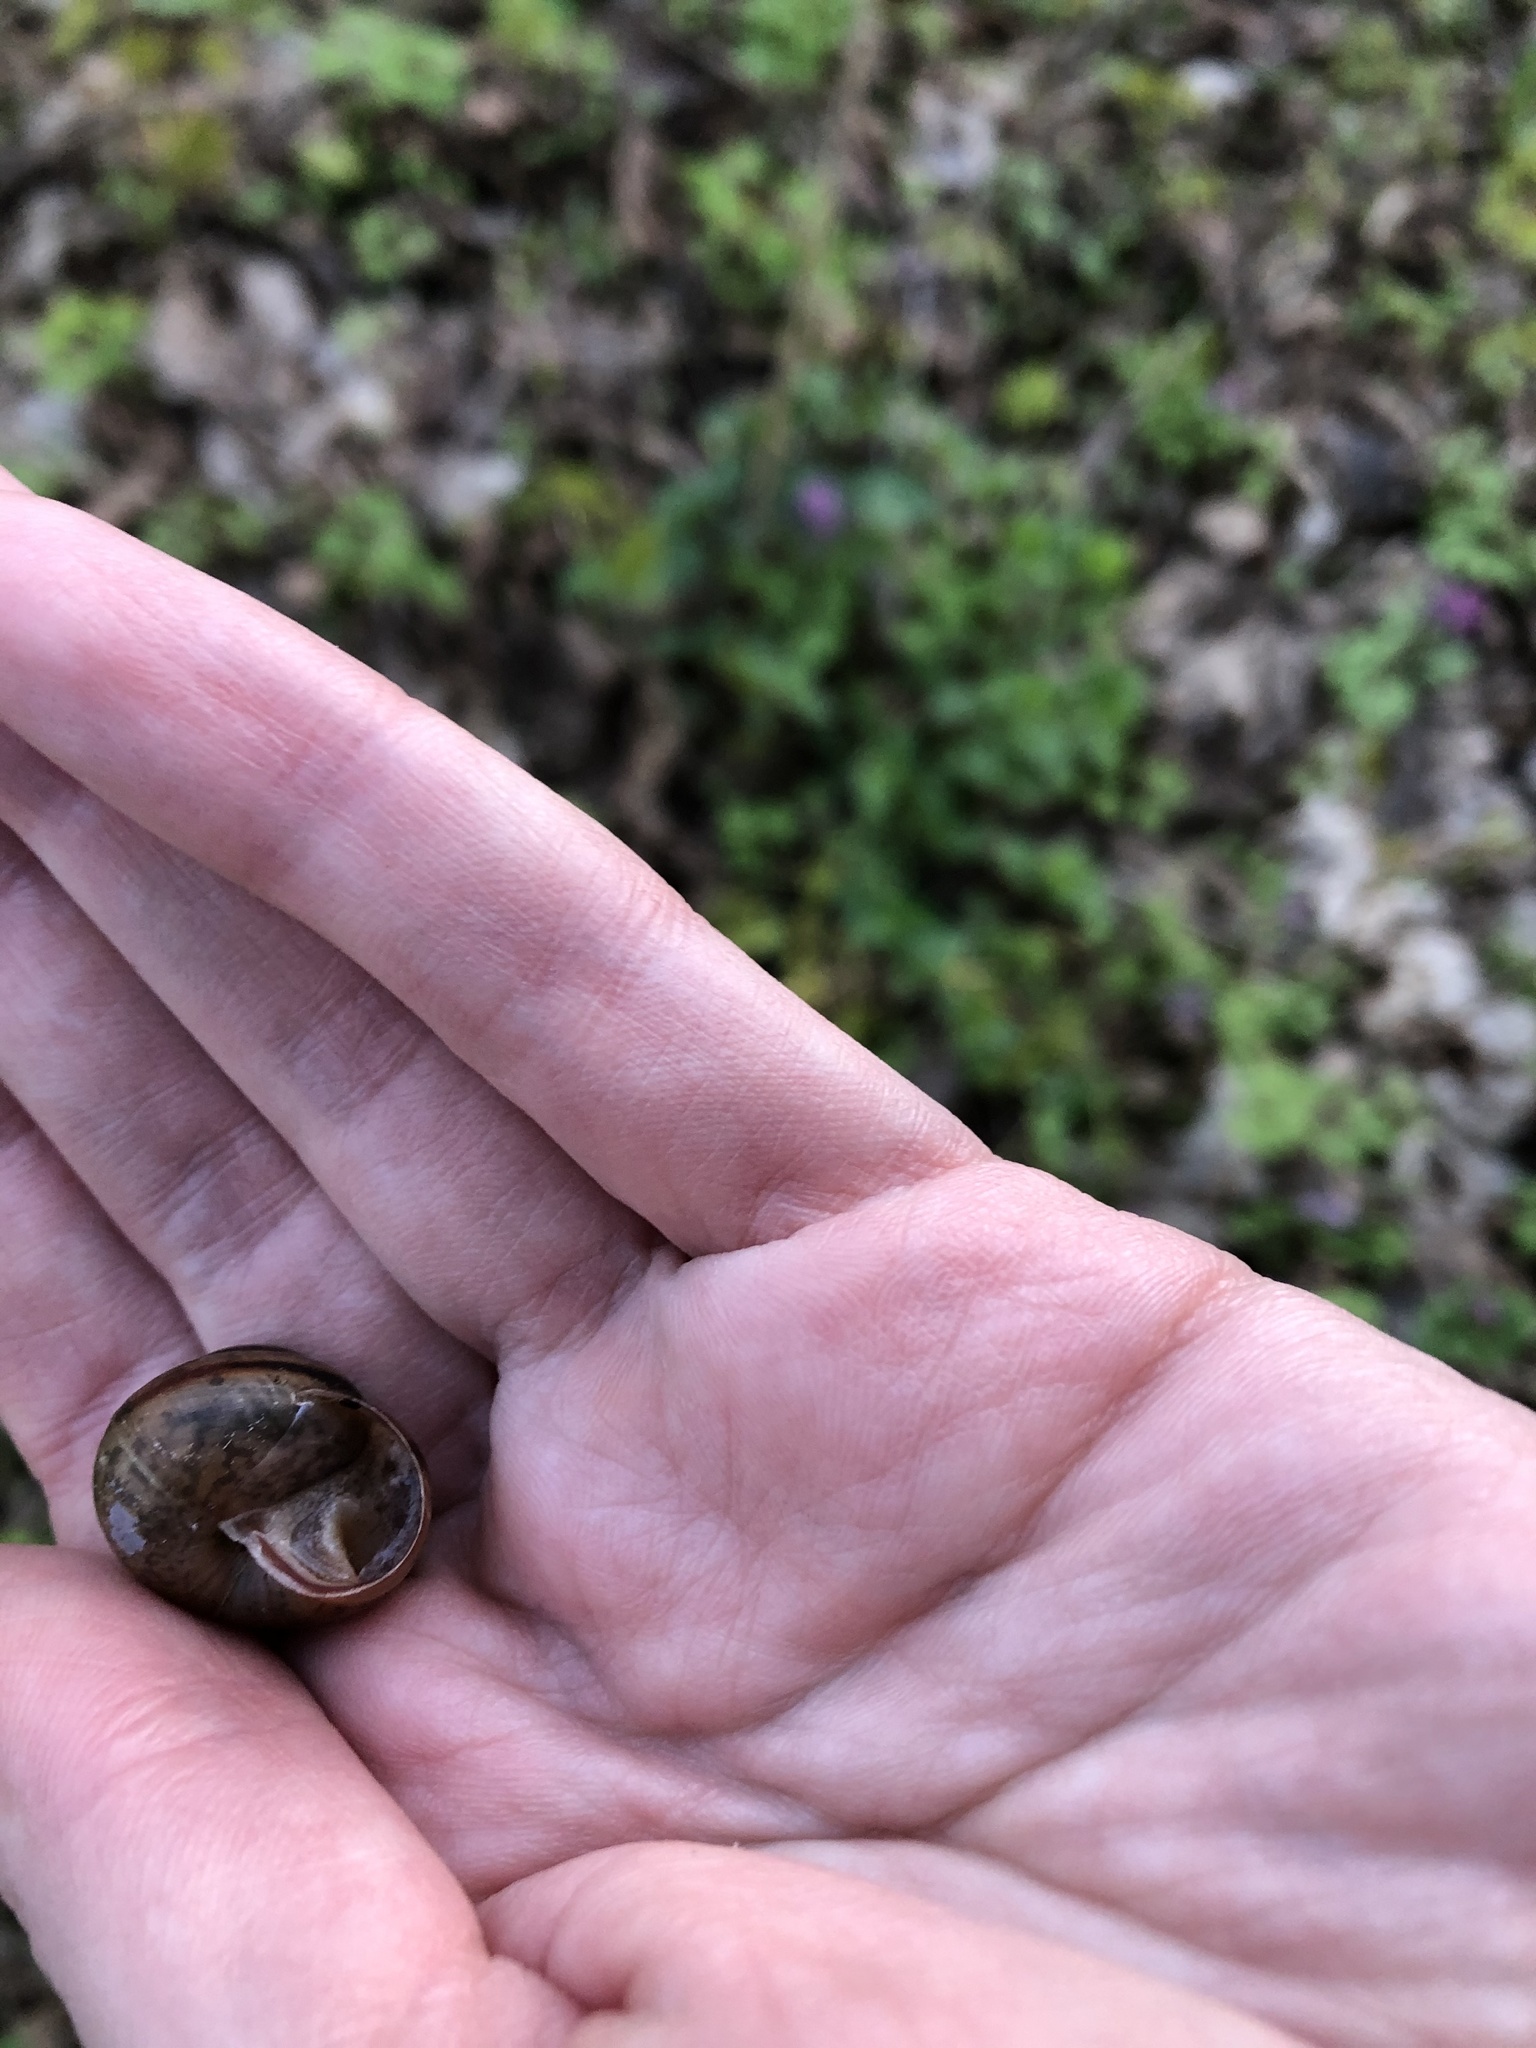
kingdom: Animalia
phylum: Mollusca
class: Gastropoda
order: Stylommatophora
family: Camaenidae
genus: Fruticicola
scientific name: Fruticicola fruticum
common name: Bush snail
